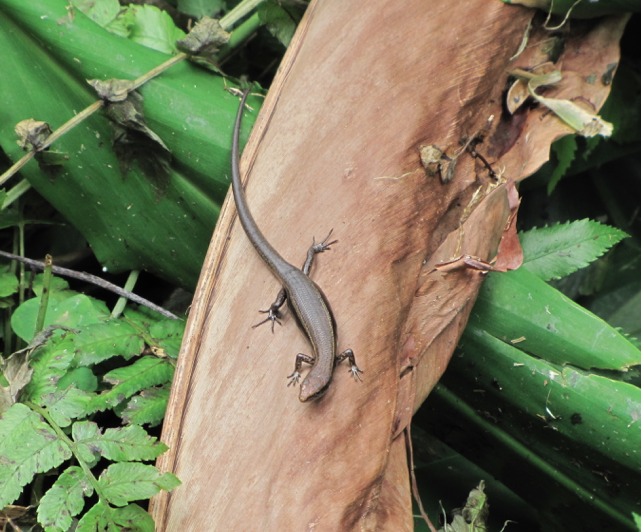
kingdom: Animalia
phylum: Chordata
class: Squamata
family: Scincidae
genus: Lampropholis
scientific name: Lampropholis delicata
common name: Plague skink
